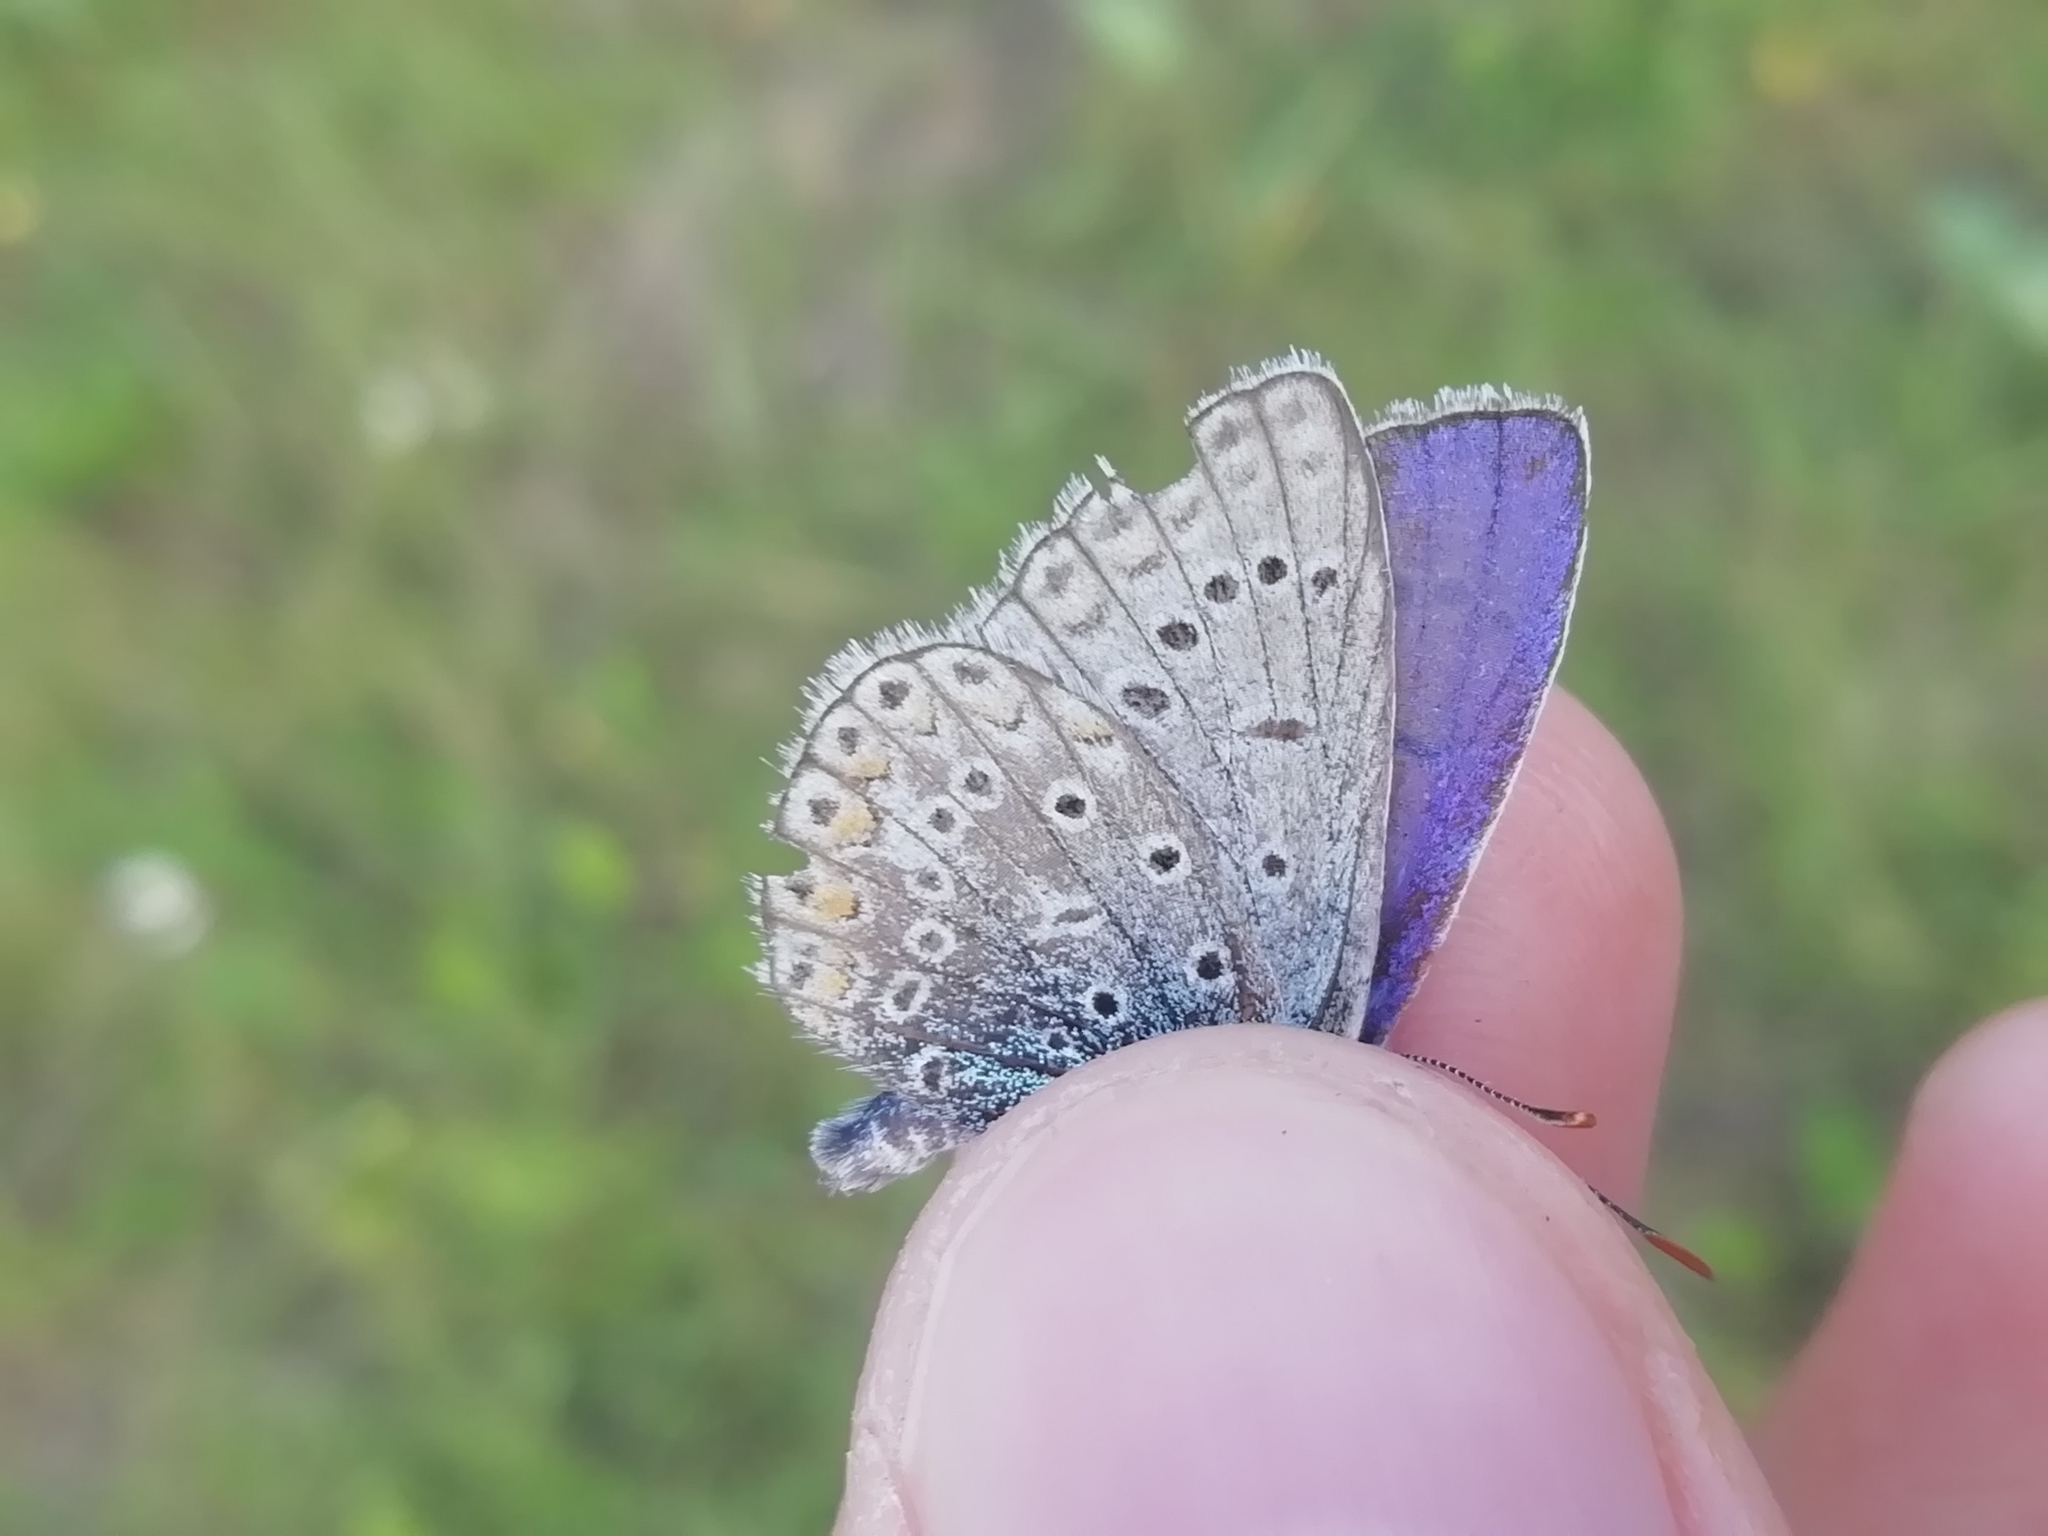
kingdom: Animalia
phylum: Arthropoda
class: Insecta
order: Lepidoptera
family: Lycaenidae
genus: Polyommatus
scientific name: Polyommatus icarus
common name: Common blue
